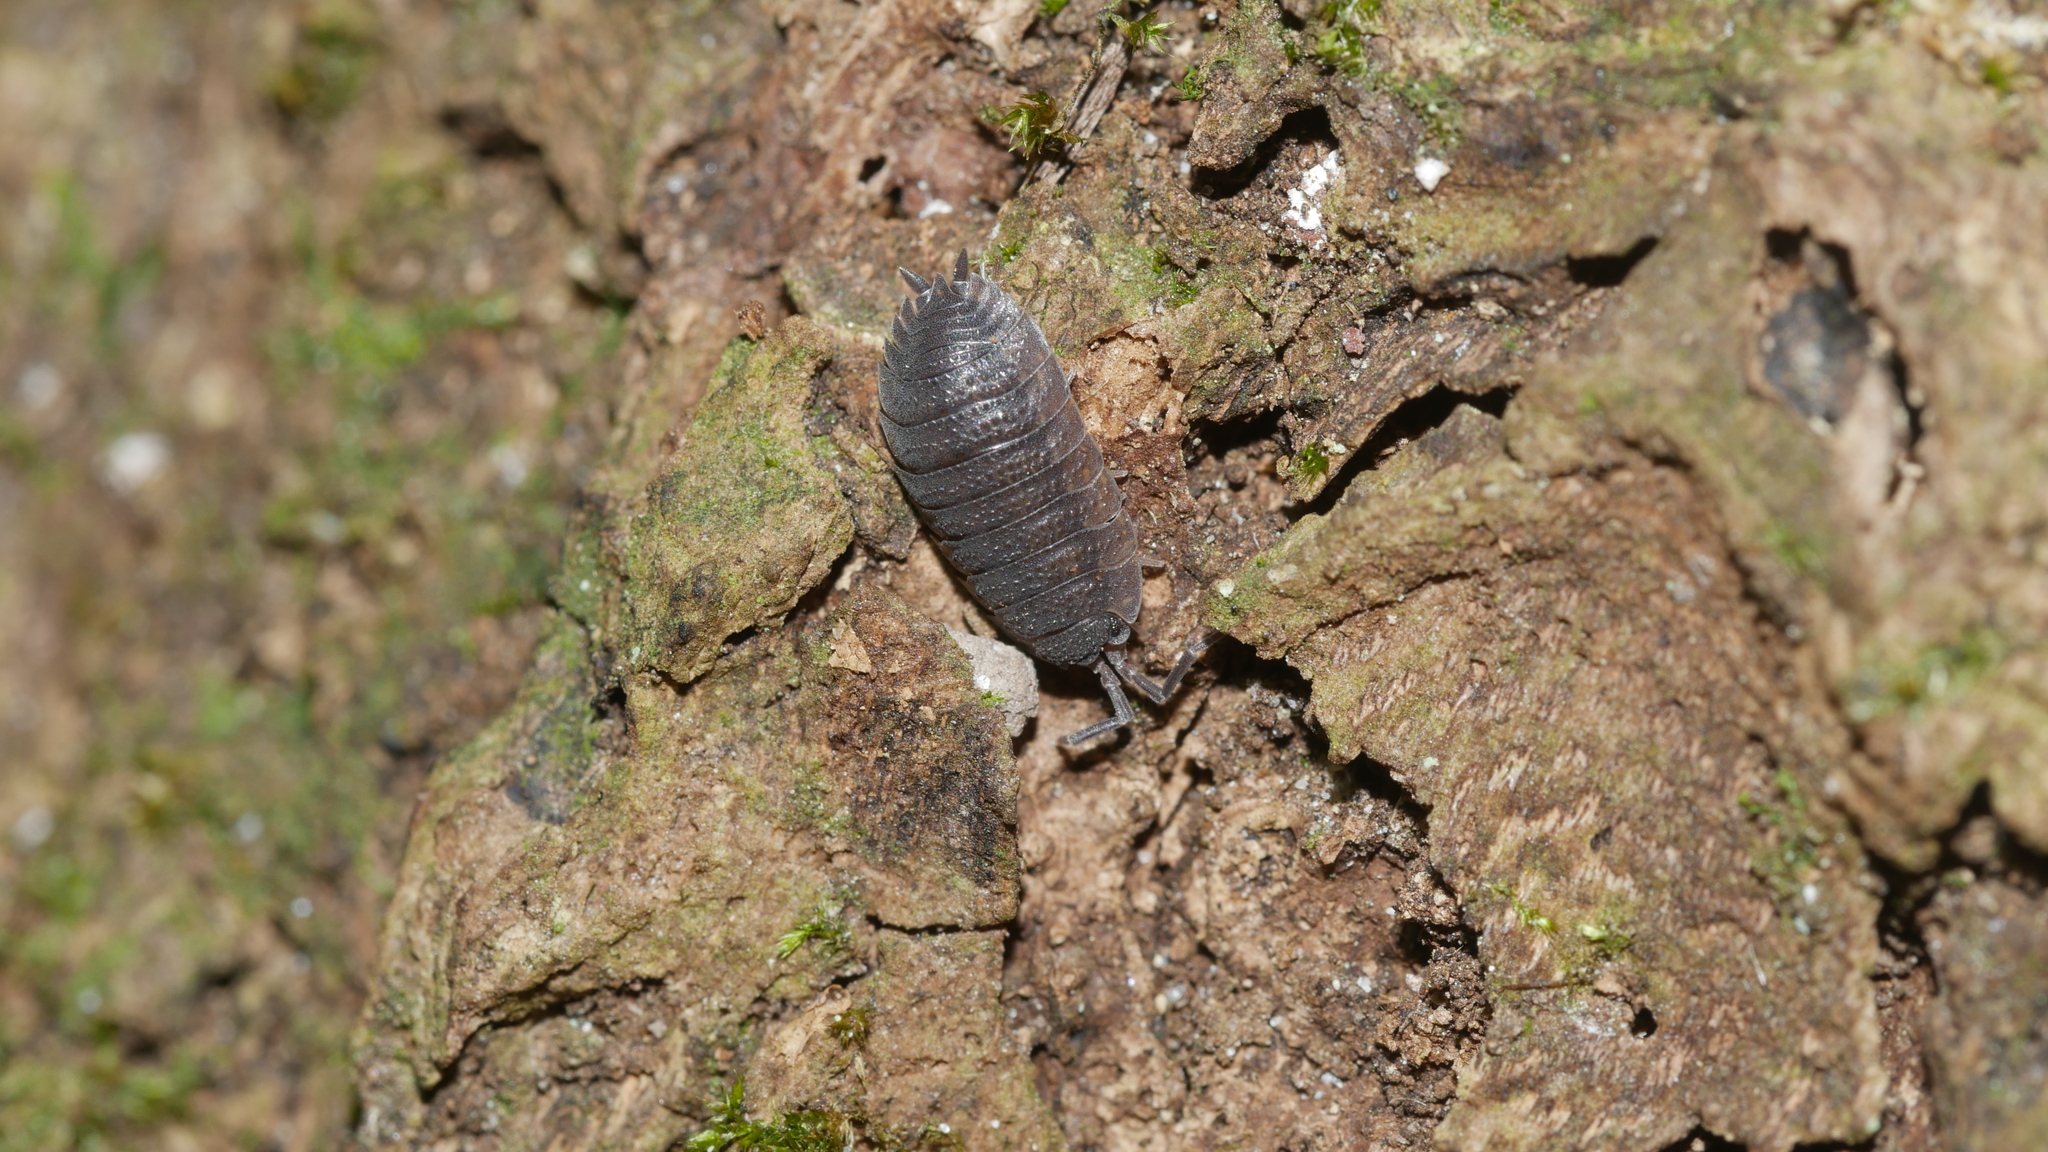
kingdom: Animalia
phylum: Arthropoda
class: Malacostraca
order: Isopoda
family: Porcellionidae
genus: Porcellio
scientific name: Porcellio scaber
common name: Common rough woodlouse
